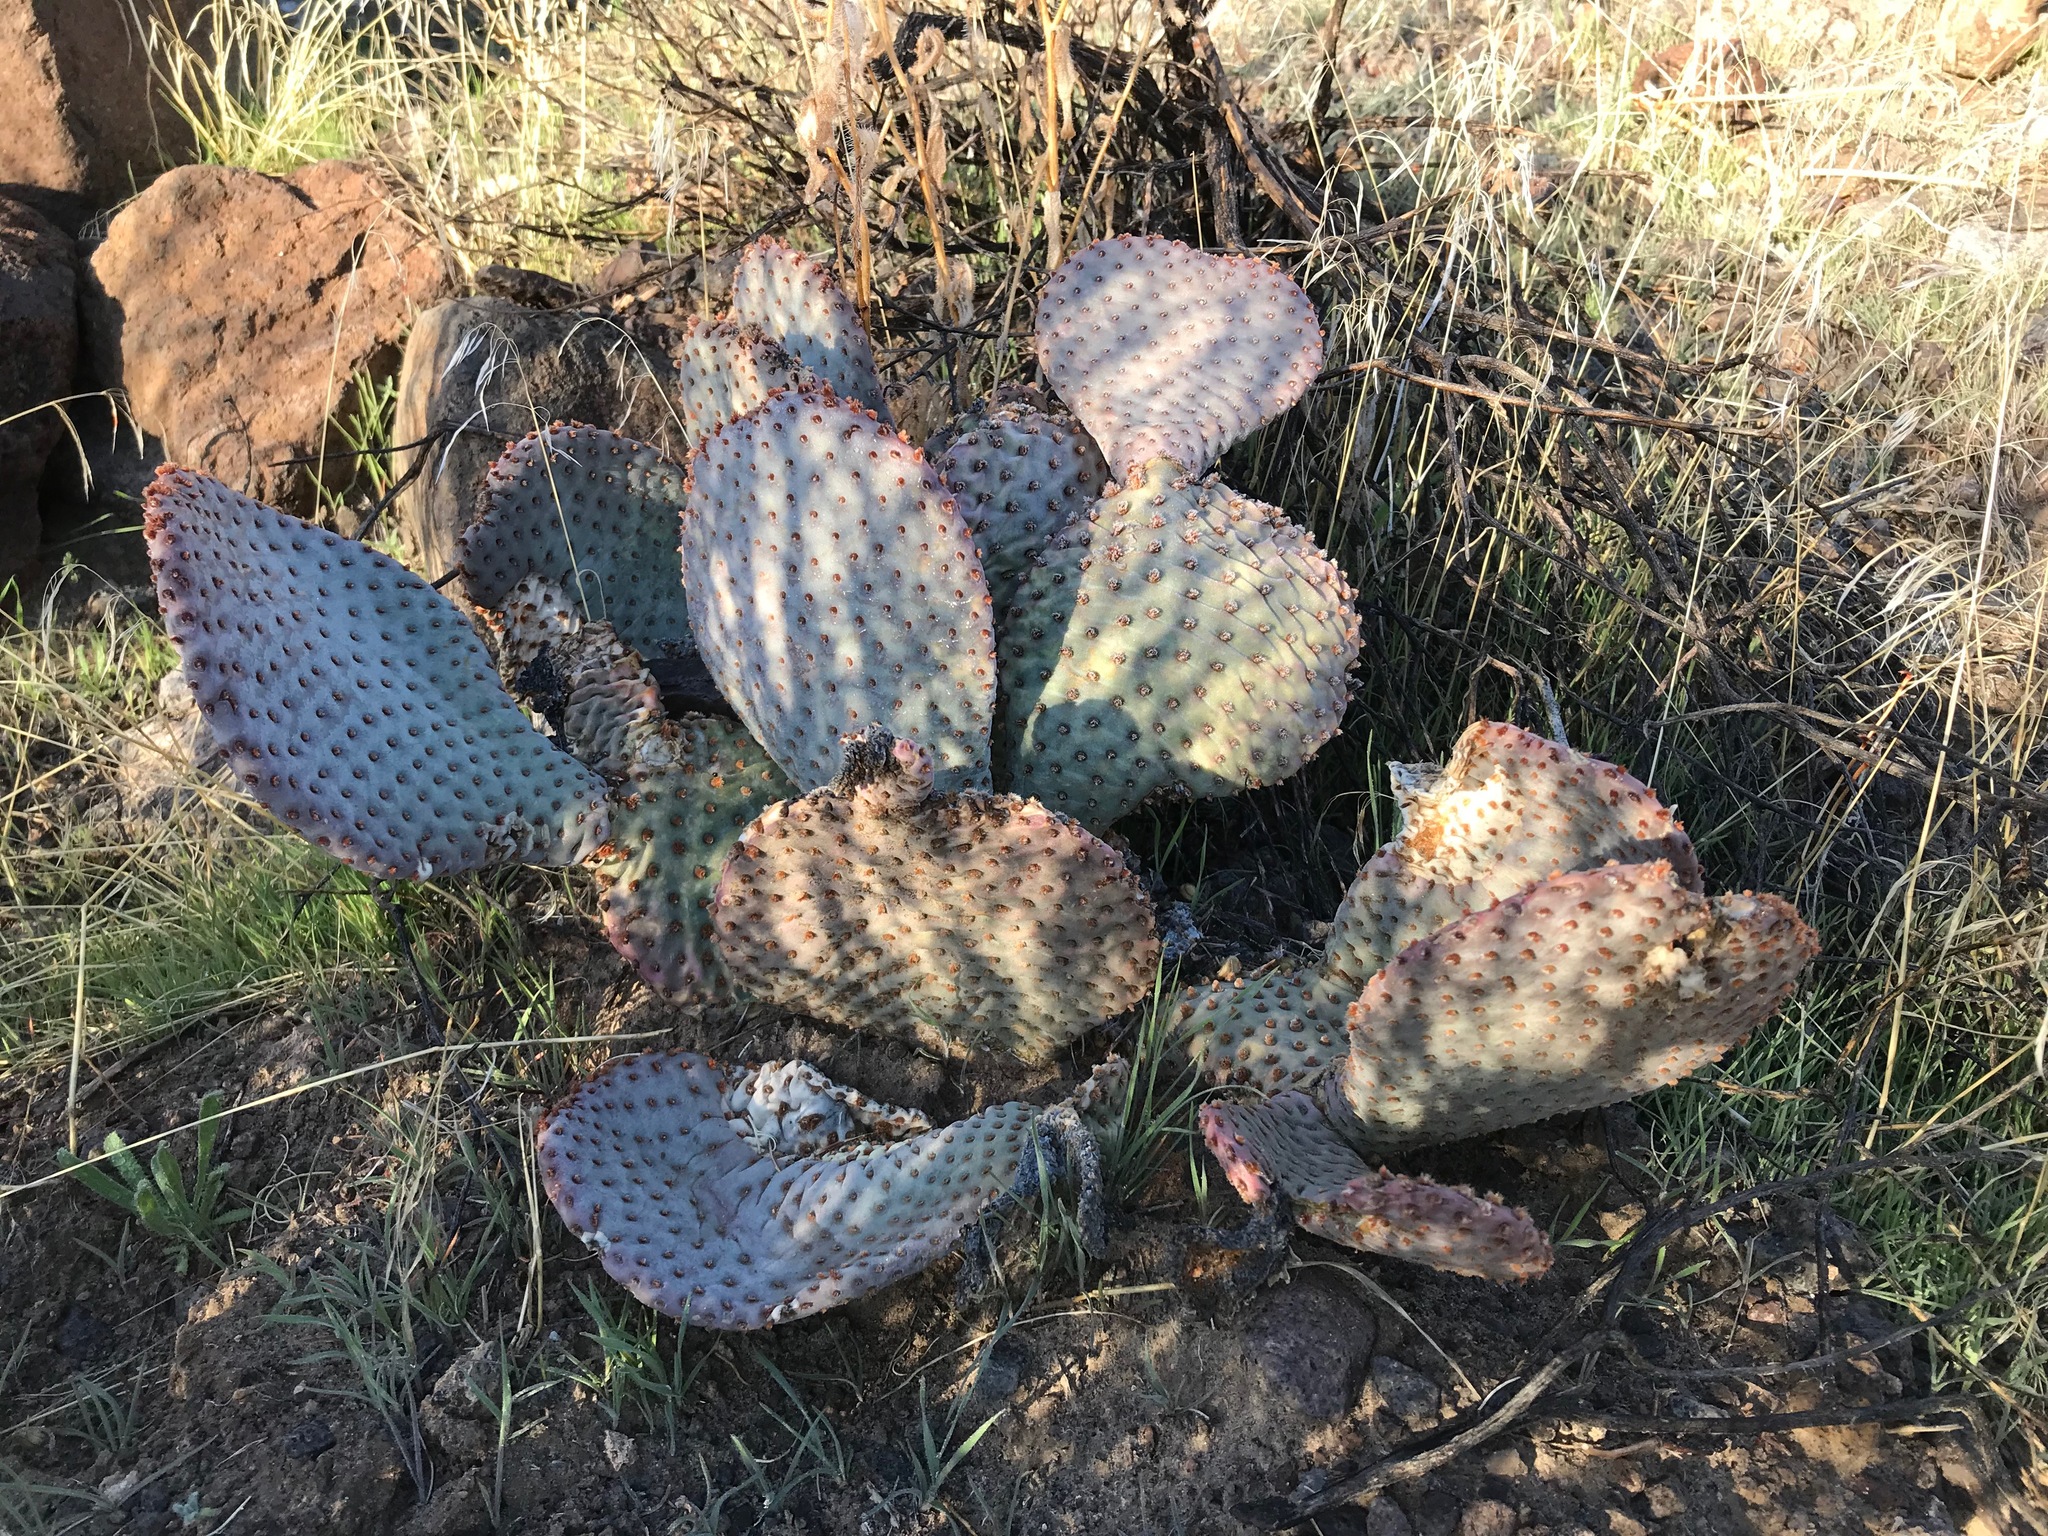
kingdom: Plantae
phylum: Tracheophyta
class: Magnoliopsida
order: Caryophyllales
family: Cactaceae
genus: Opuntia
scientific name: Opuntia basilaris
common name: Beavertail prickly-pear
